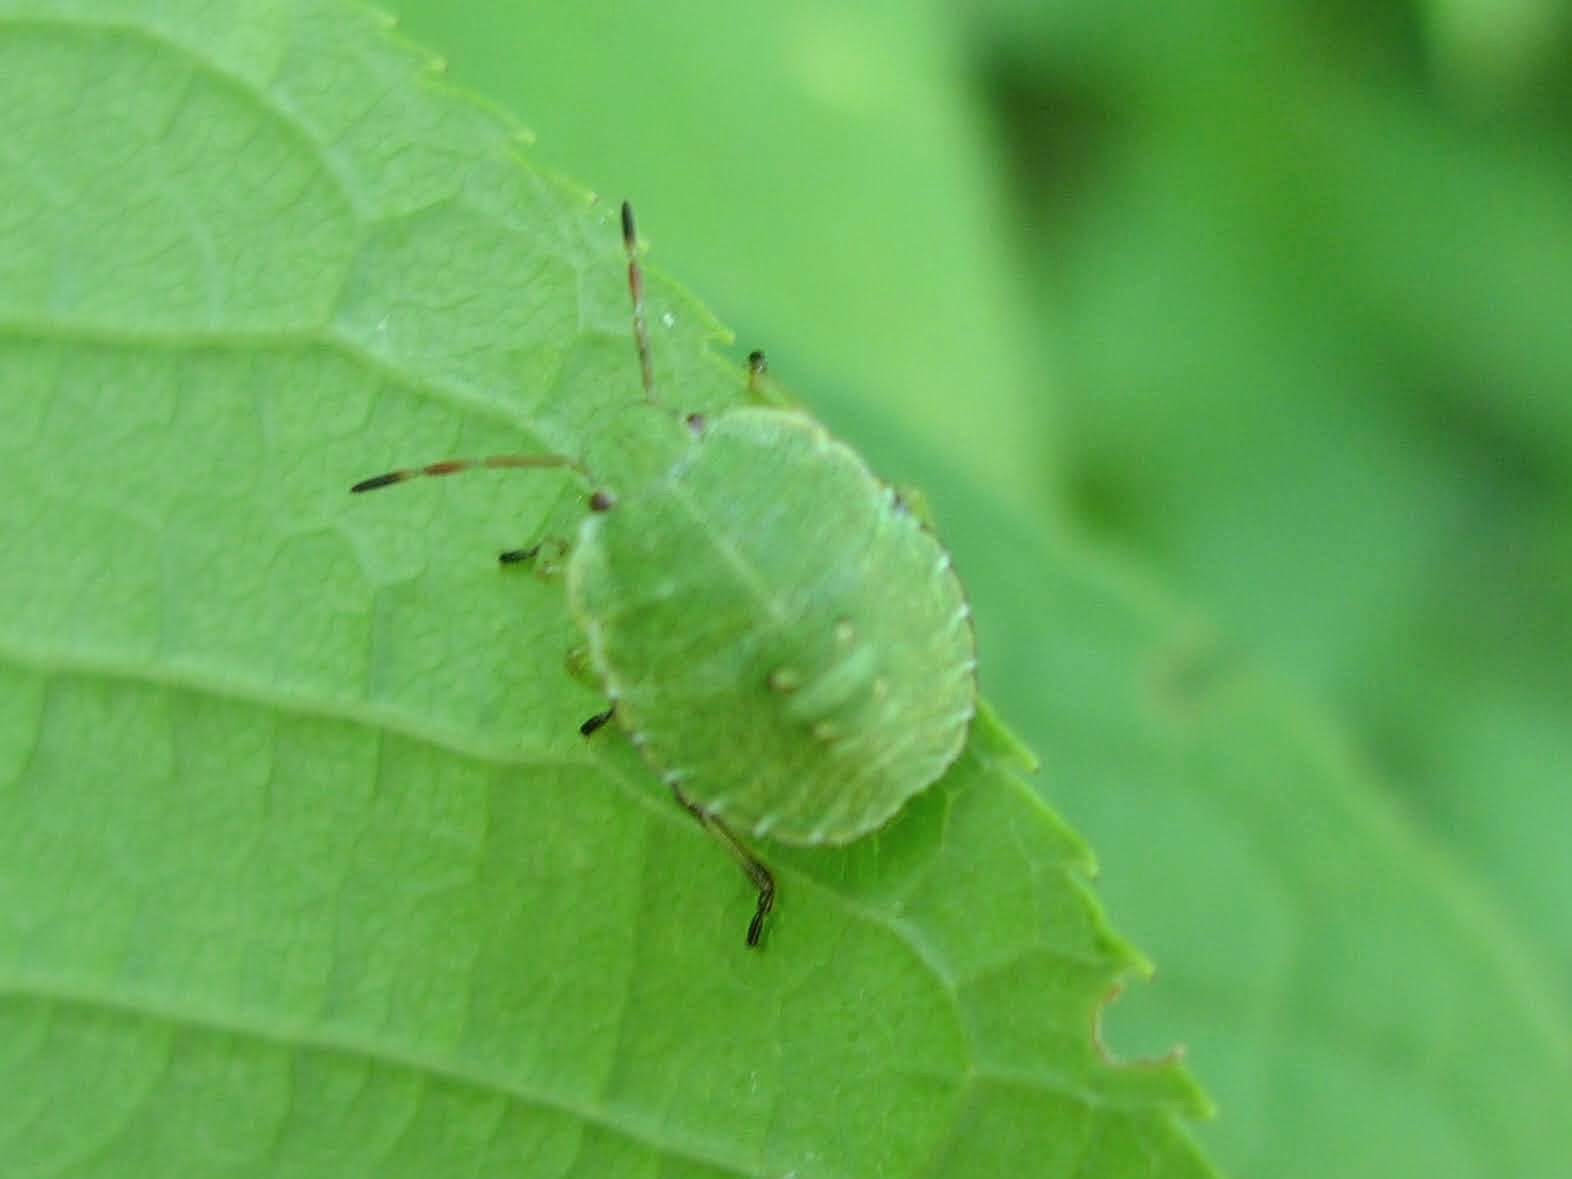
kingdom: Animalia
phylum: Arthropoda
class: Insecta
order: Hemiptera
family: Pentatomidae
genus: Palomena
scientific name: Palomena prasina
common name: Green shieldbug
